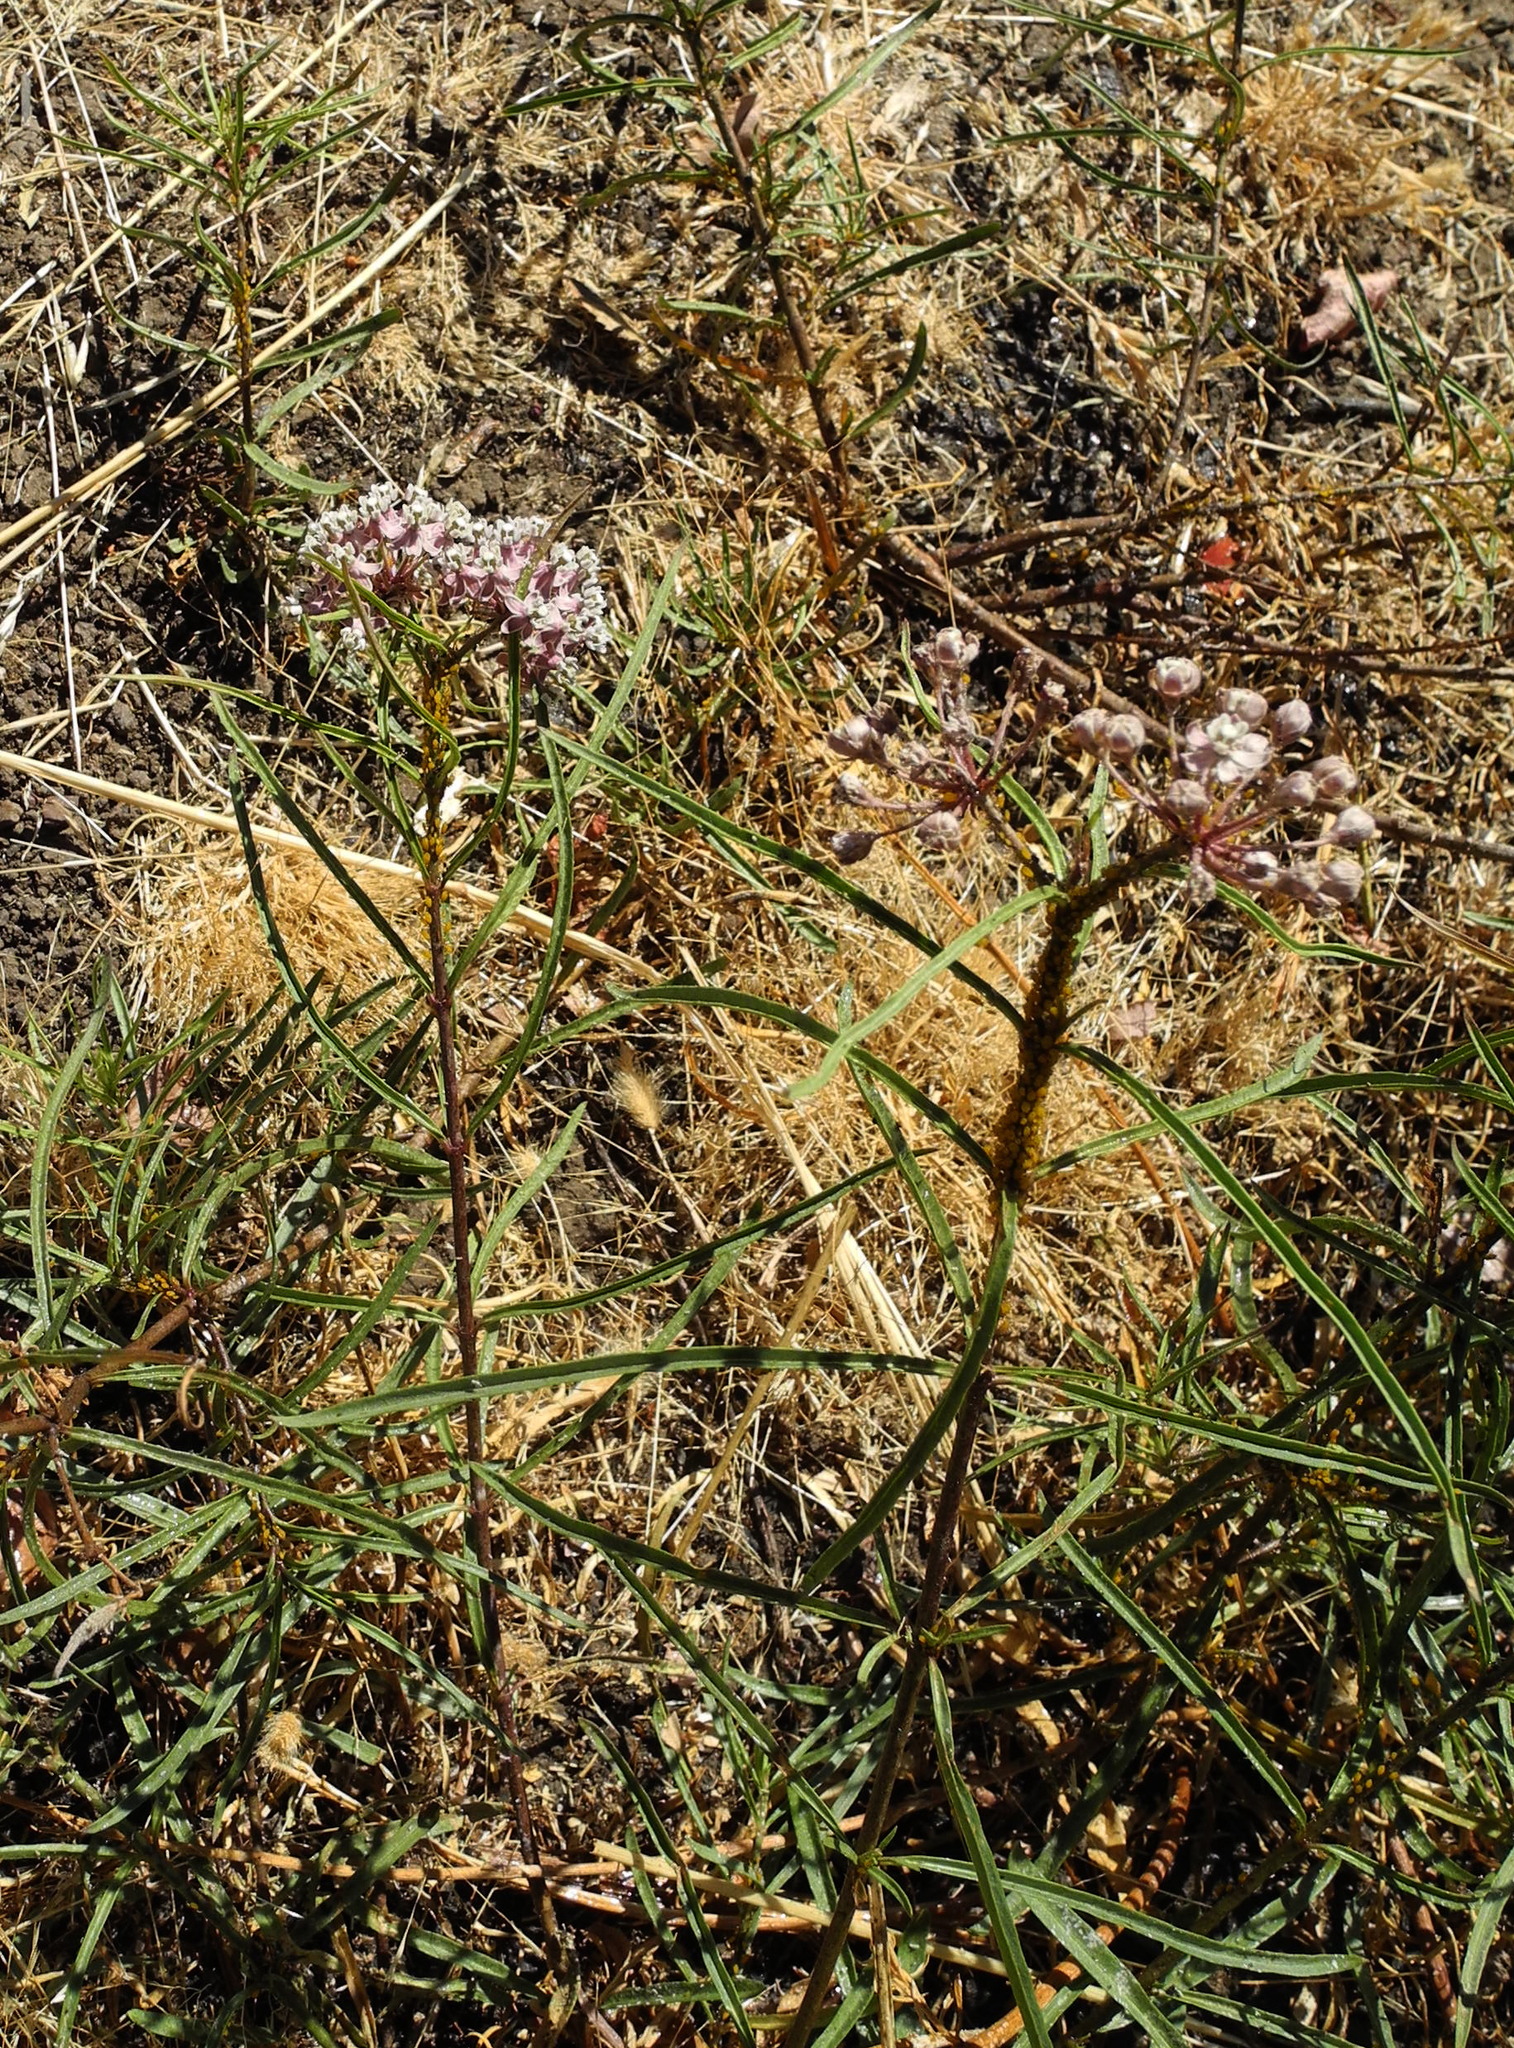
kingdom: Plantae
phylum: Tracheophyta
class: Magnoliopsida
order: Gentianales
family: Apocynaceae
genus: Asclepias
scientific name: Asclepias fascicularis
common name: Mexican milkweed
